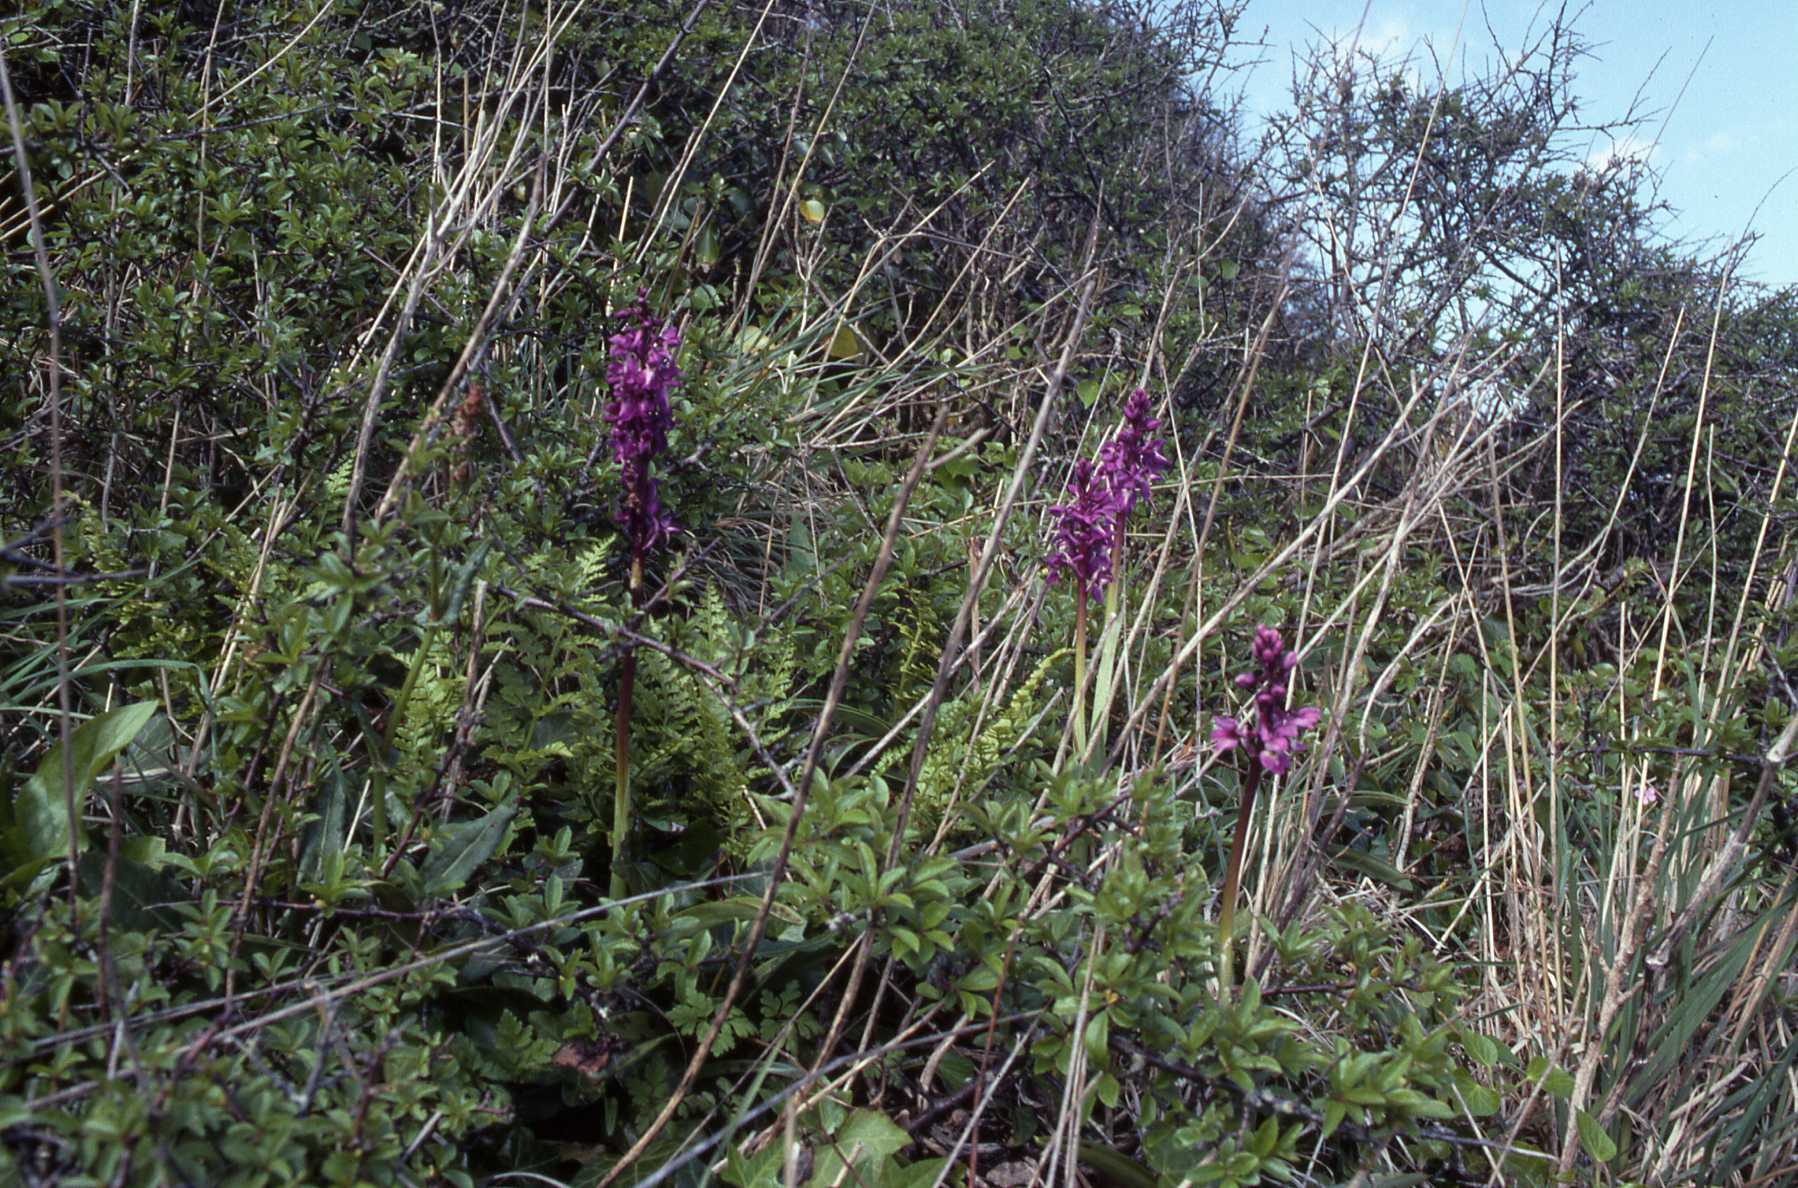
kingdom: Plantae
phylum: Tracheophyta
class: Liliopsida
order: Asparagales
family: Orchidaceae
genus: Orchis
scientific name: Orchis mascula
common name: Early-purple orchid
